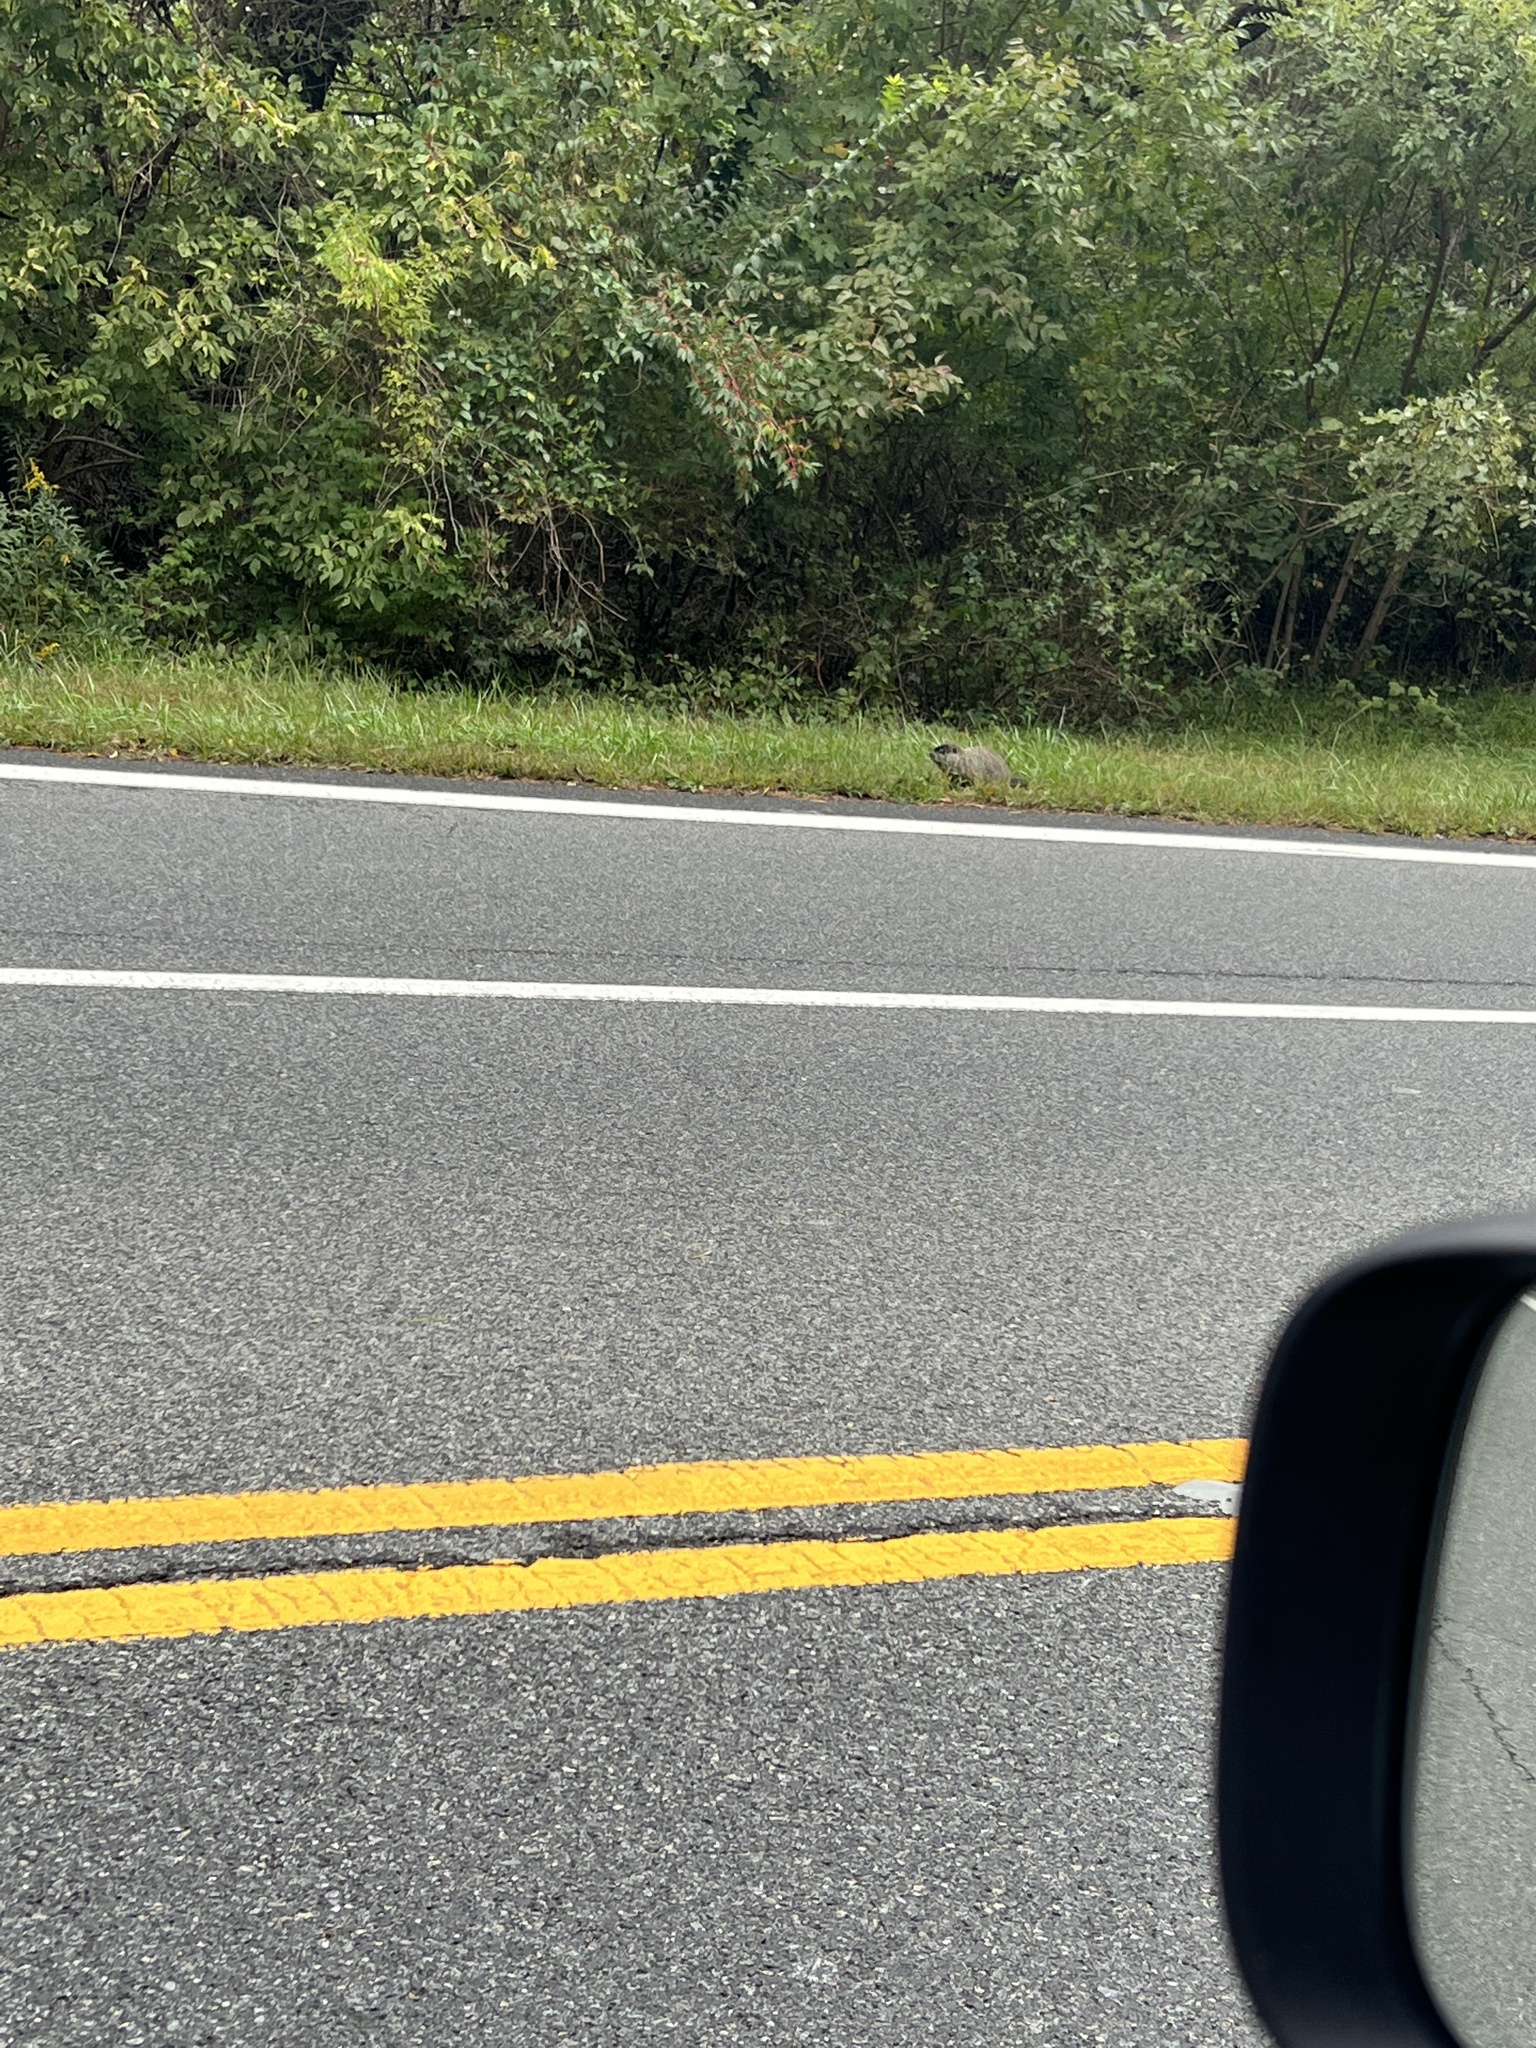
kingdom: Animalia
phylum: Chordata
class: Mammalia
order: Rodentia
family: Sciuridae
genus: Marmota
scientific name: Marmota monax
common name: Groundhog
